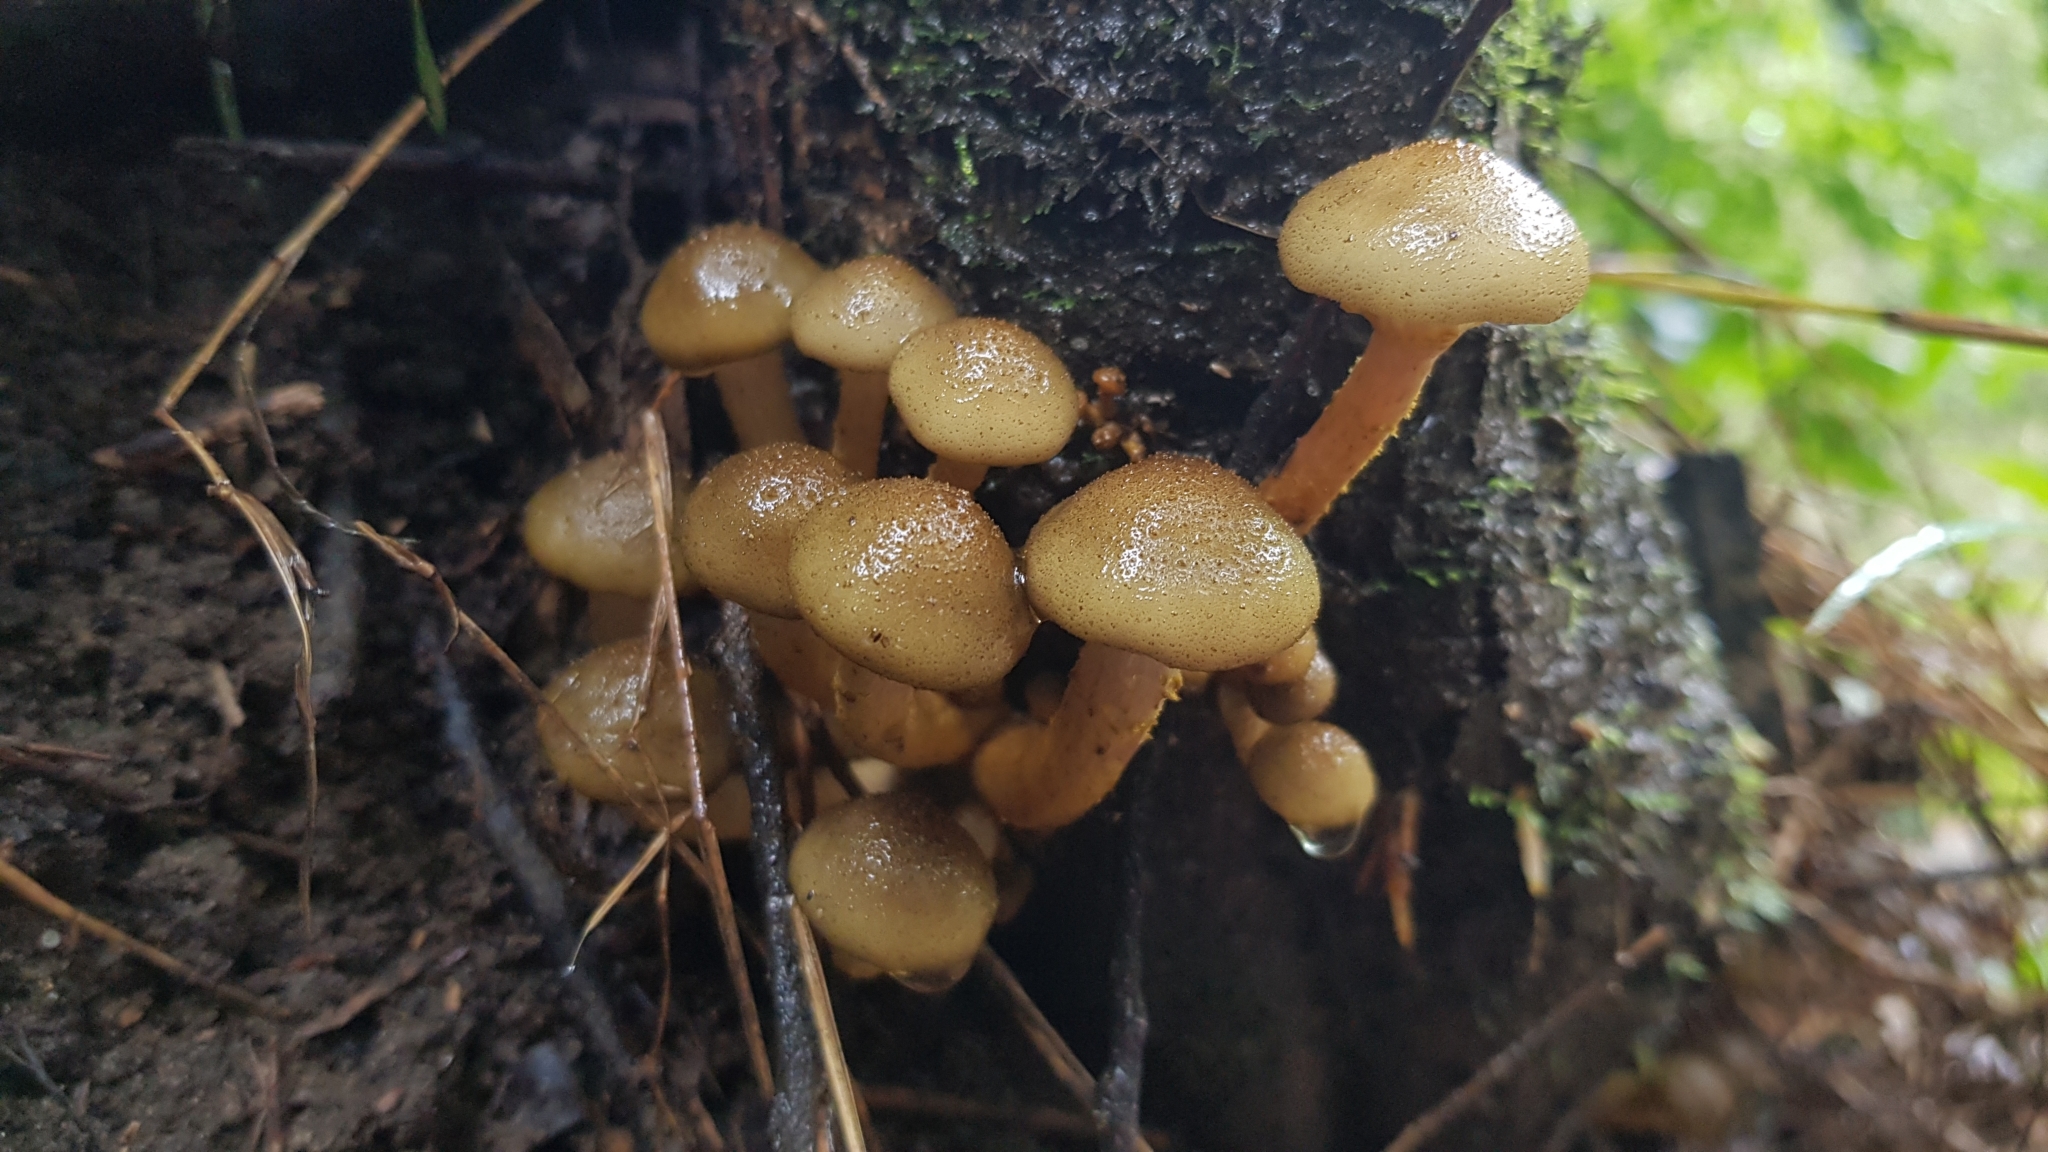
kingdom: Fungi
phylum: Basidiomycota
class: Agaricomycetes
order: Agaricales
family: Physalacriaceae
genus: Armillaria
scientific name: Armillaria luteobubalina
